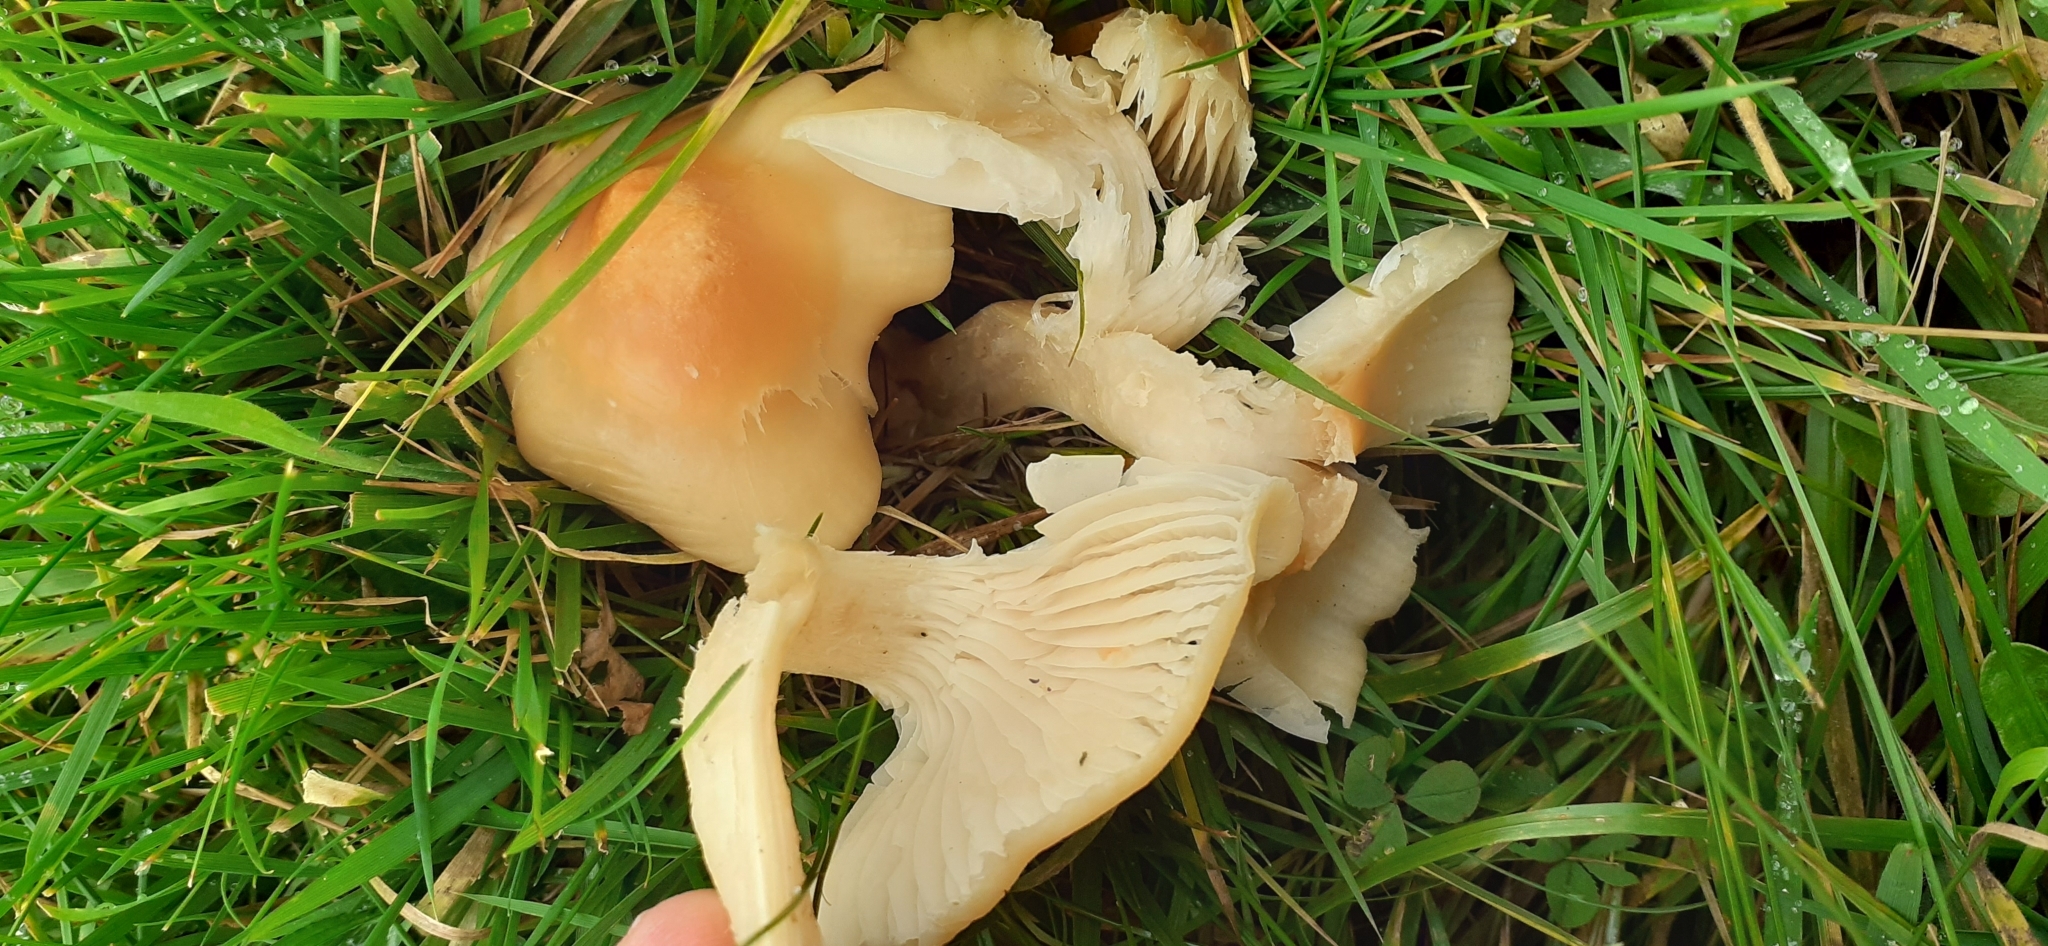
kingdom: Fungi
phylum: Basidiomycota
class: Agaricomycetes
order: Agaricales
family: Hygrophoraceae
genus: Cuphophyllus
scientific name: Cuphophyllus pratensis
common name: Meadow waxcap
